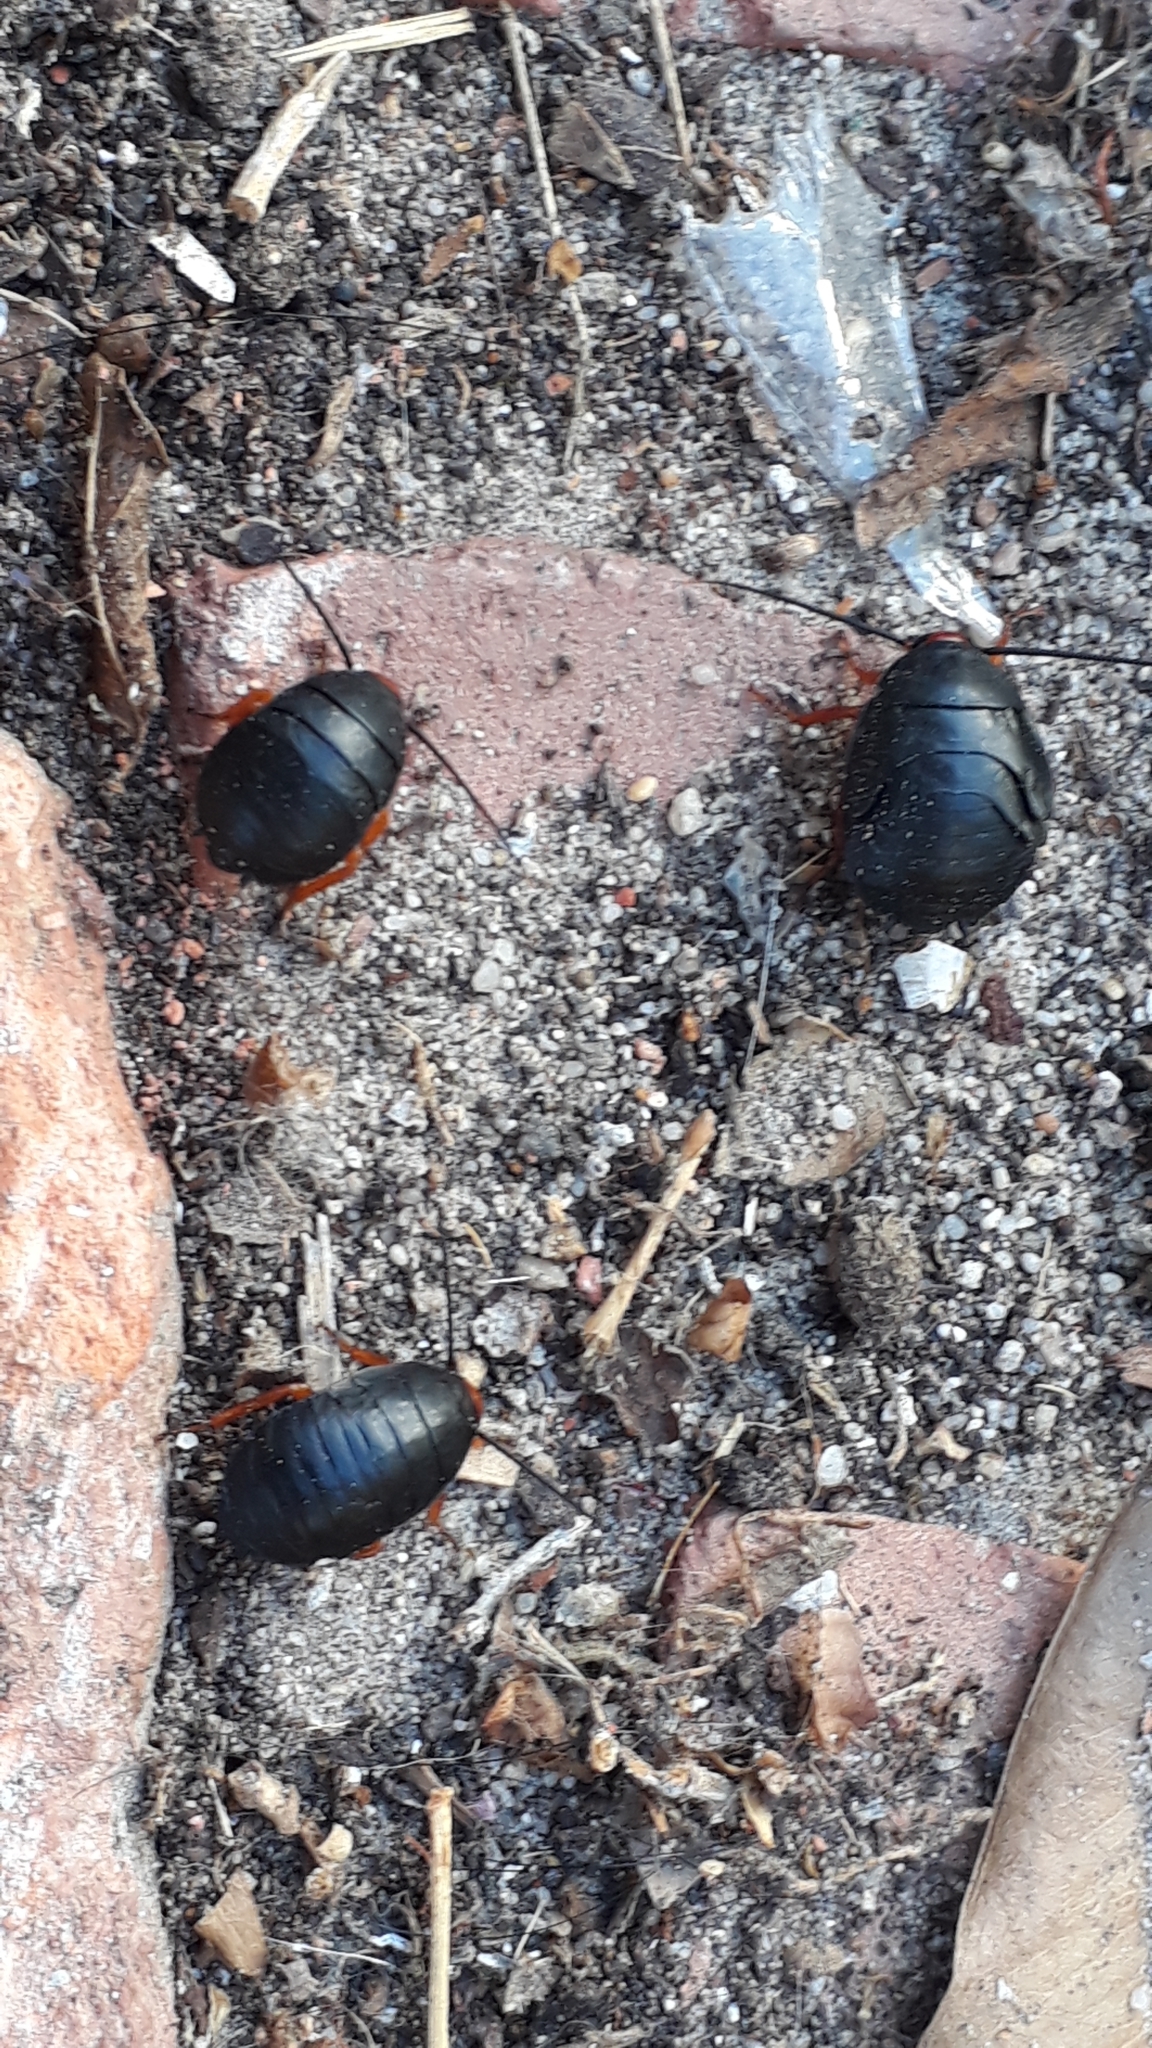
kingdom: Animalia
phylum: Arthropoda
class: Insecta
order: Blattodea
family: Blattidae
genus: Deropeltis
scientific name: Deropeltis erythrocephala
